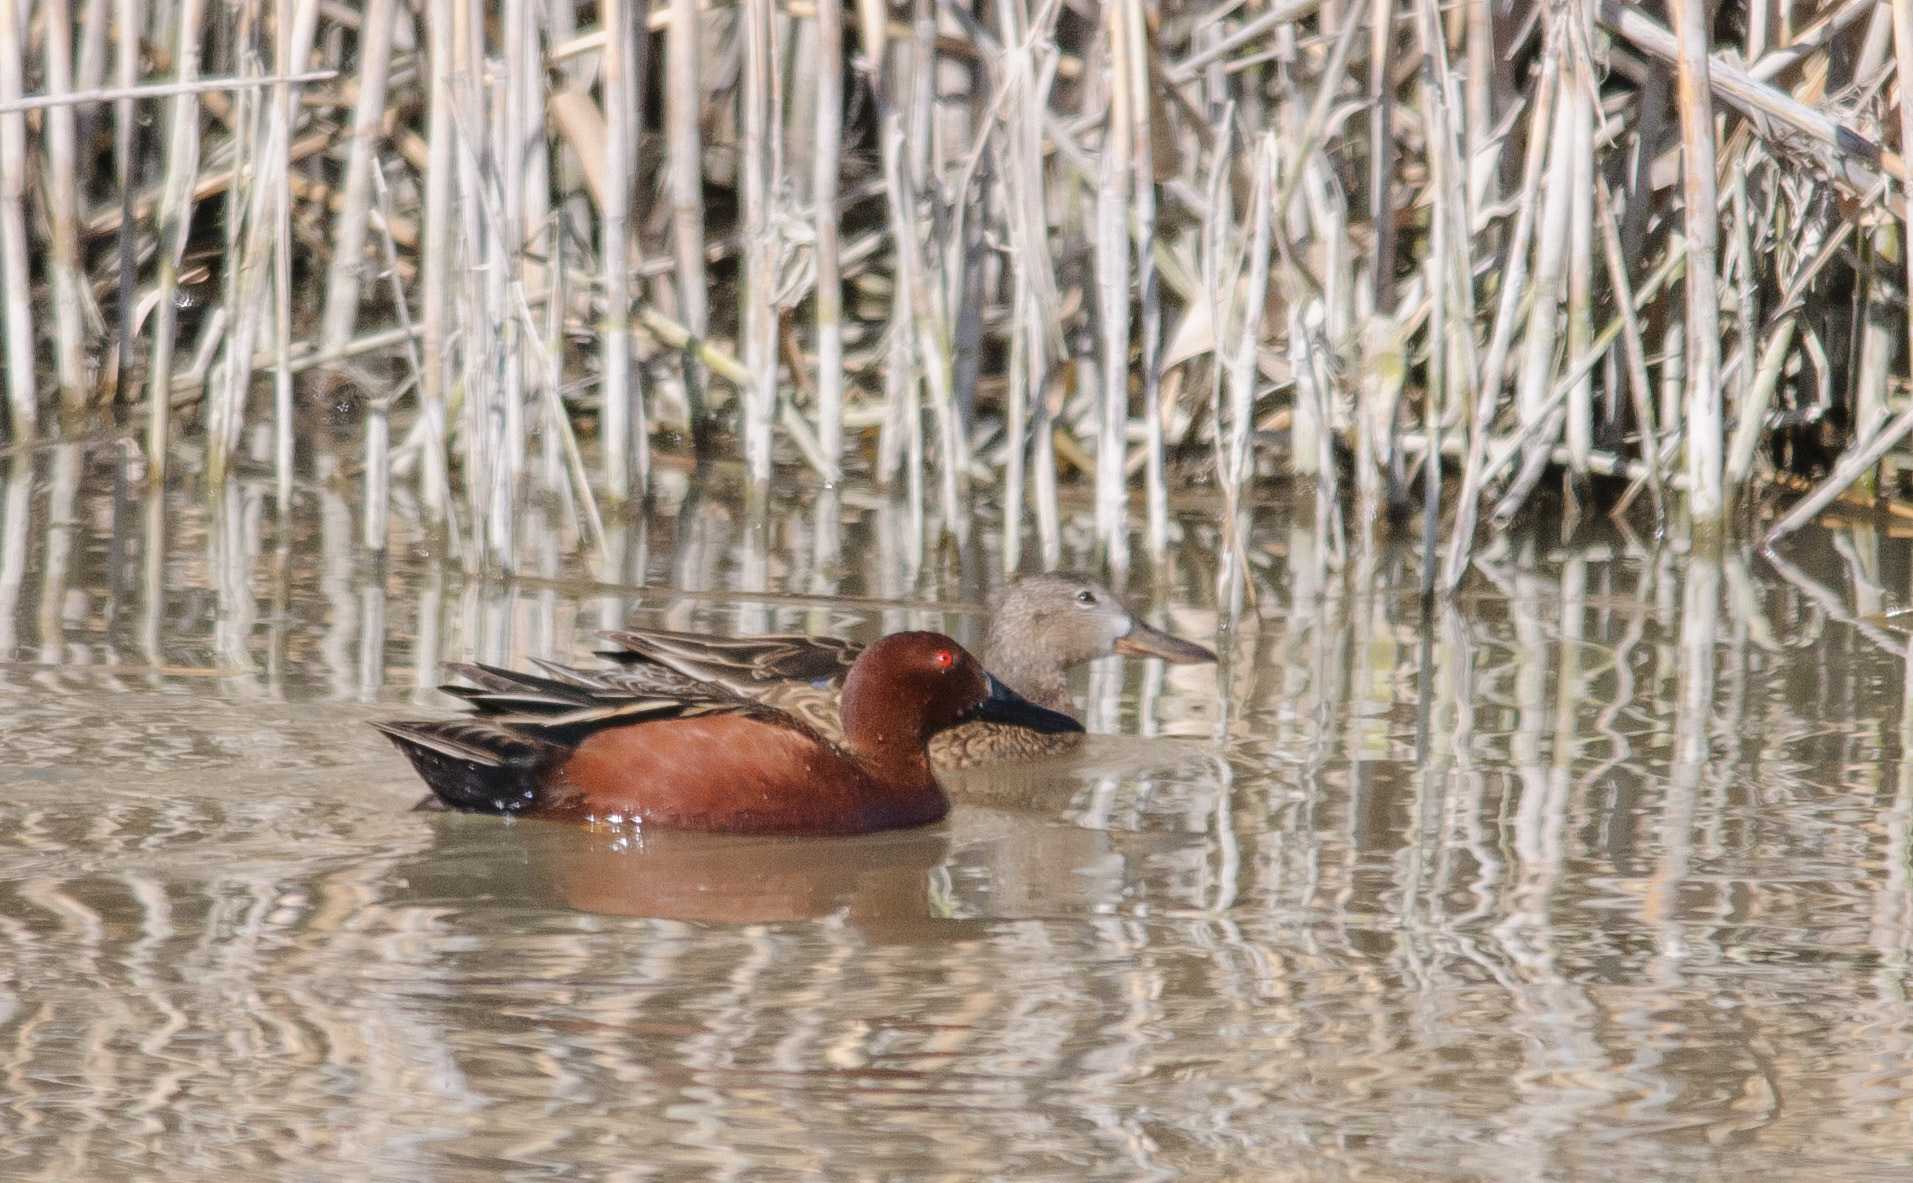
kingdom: Animalia
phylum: Chordata
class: Aves
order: Anseriformes
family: Anatidae
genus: Spatula
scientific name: Spatula cyanoptera
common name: Cinnamon teal
